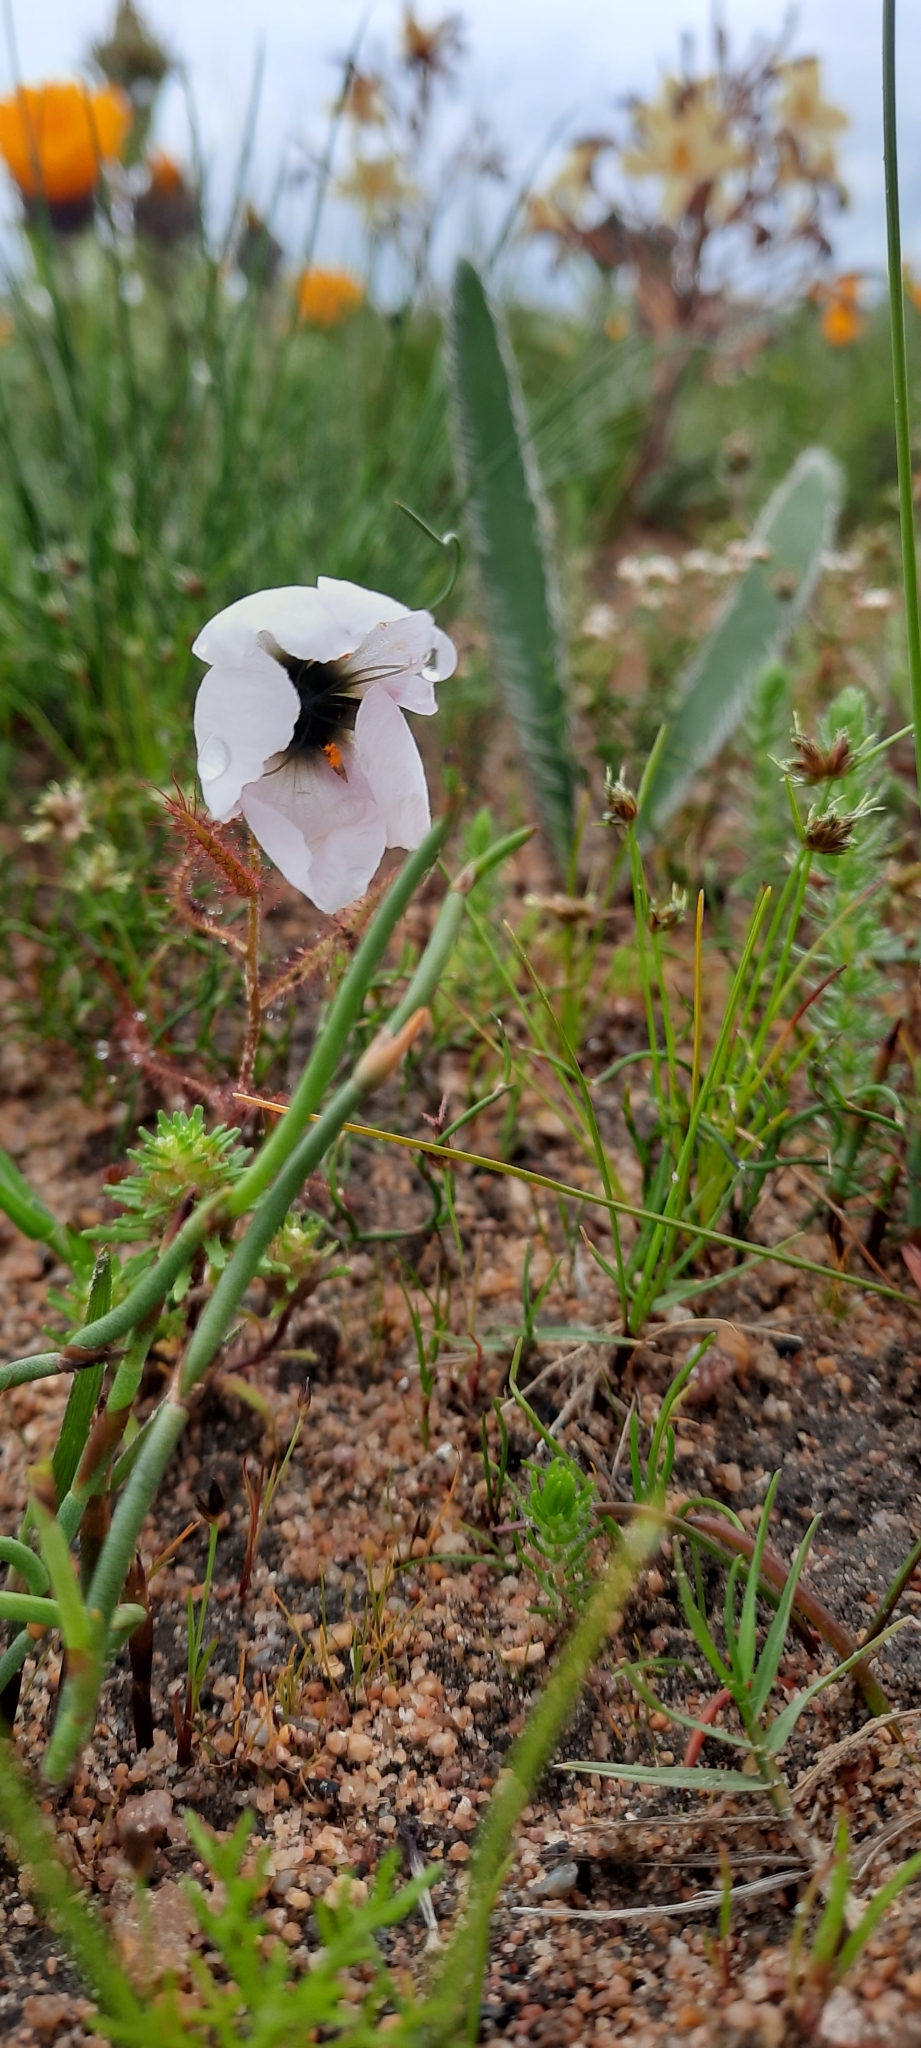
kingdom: Plantae
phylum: Tracheophyta
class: Magnoliopsida
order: Caryophyllales
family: Droseraceae
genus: Drosera
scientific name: Drosera cistiflora
